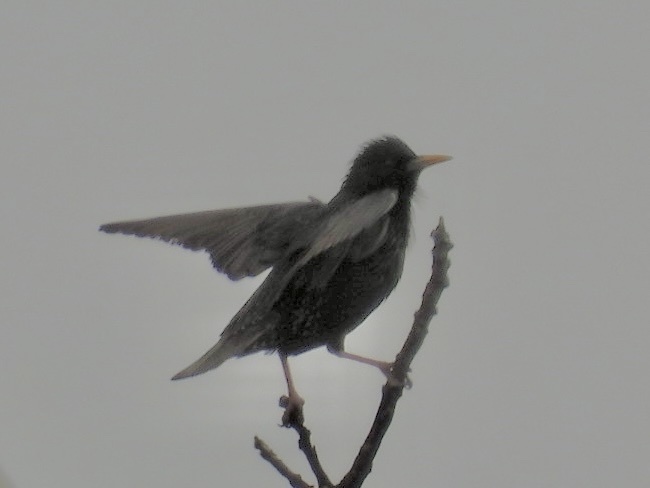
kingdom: Animalia
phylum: Chordata
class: Aves
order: Passeriformes
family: Sturnidae
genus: Sturnus
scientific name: Sturnus vulgaris
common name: Common starling
